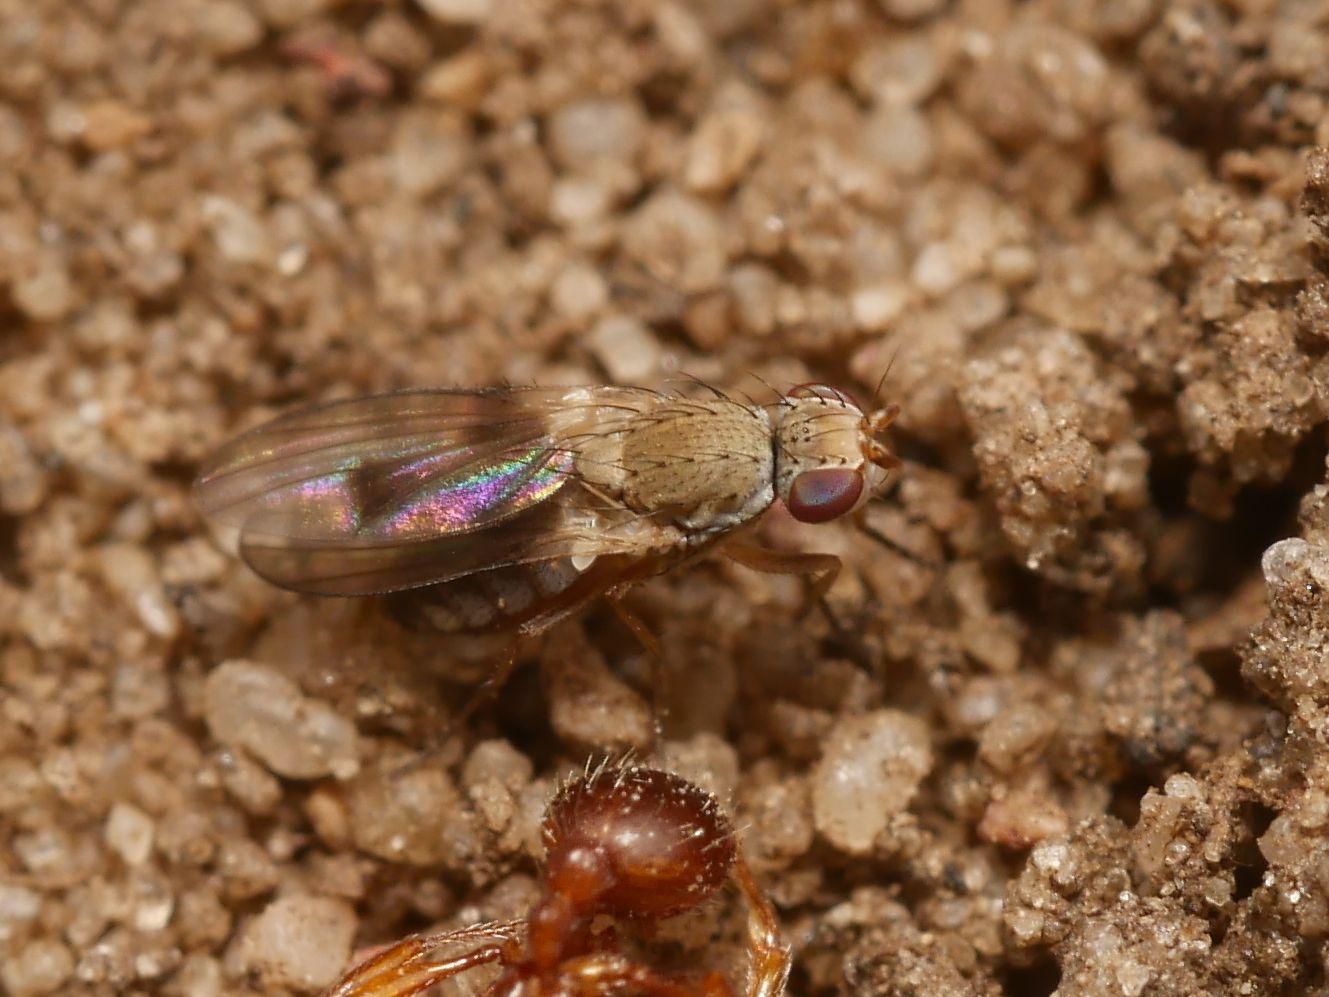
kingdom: Animalia
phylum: Arthropoda
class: Insecta
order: Diptera
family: Heleomyzidae
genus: Trixoscelis
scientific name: Trixoscelis obscurella
